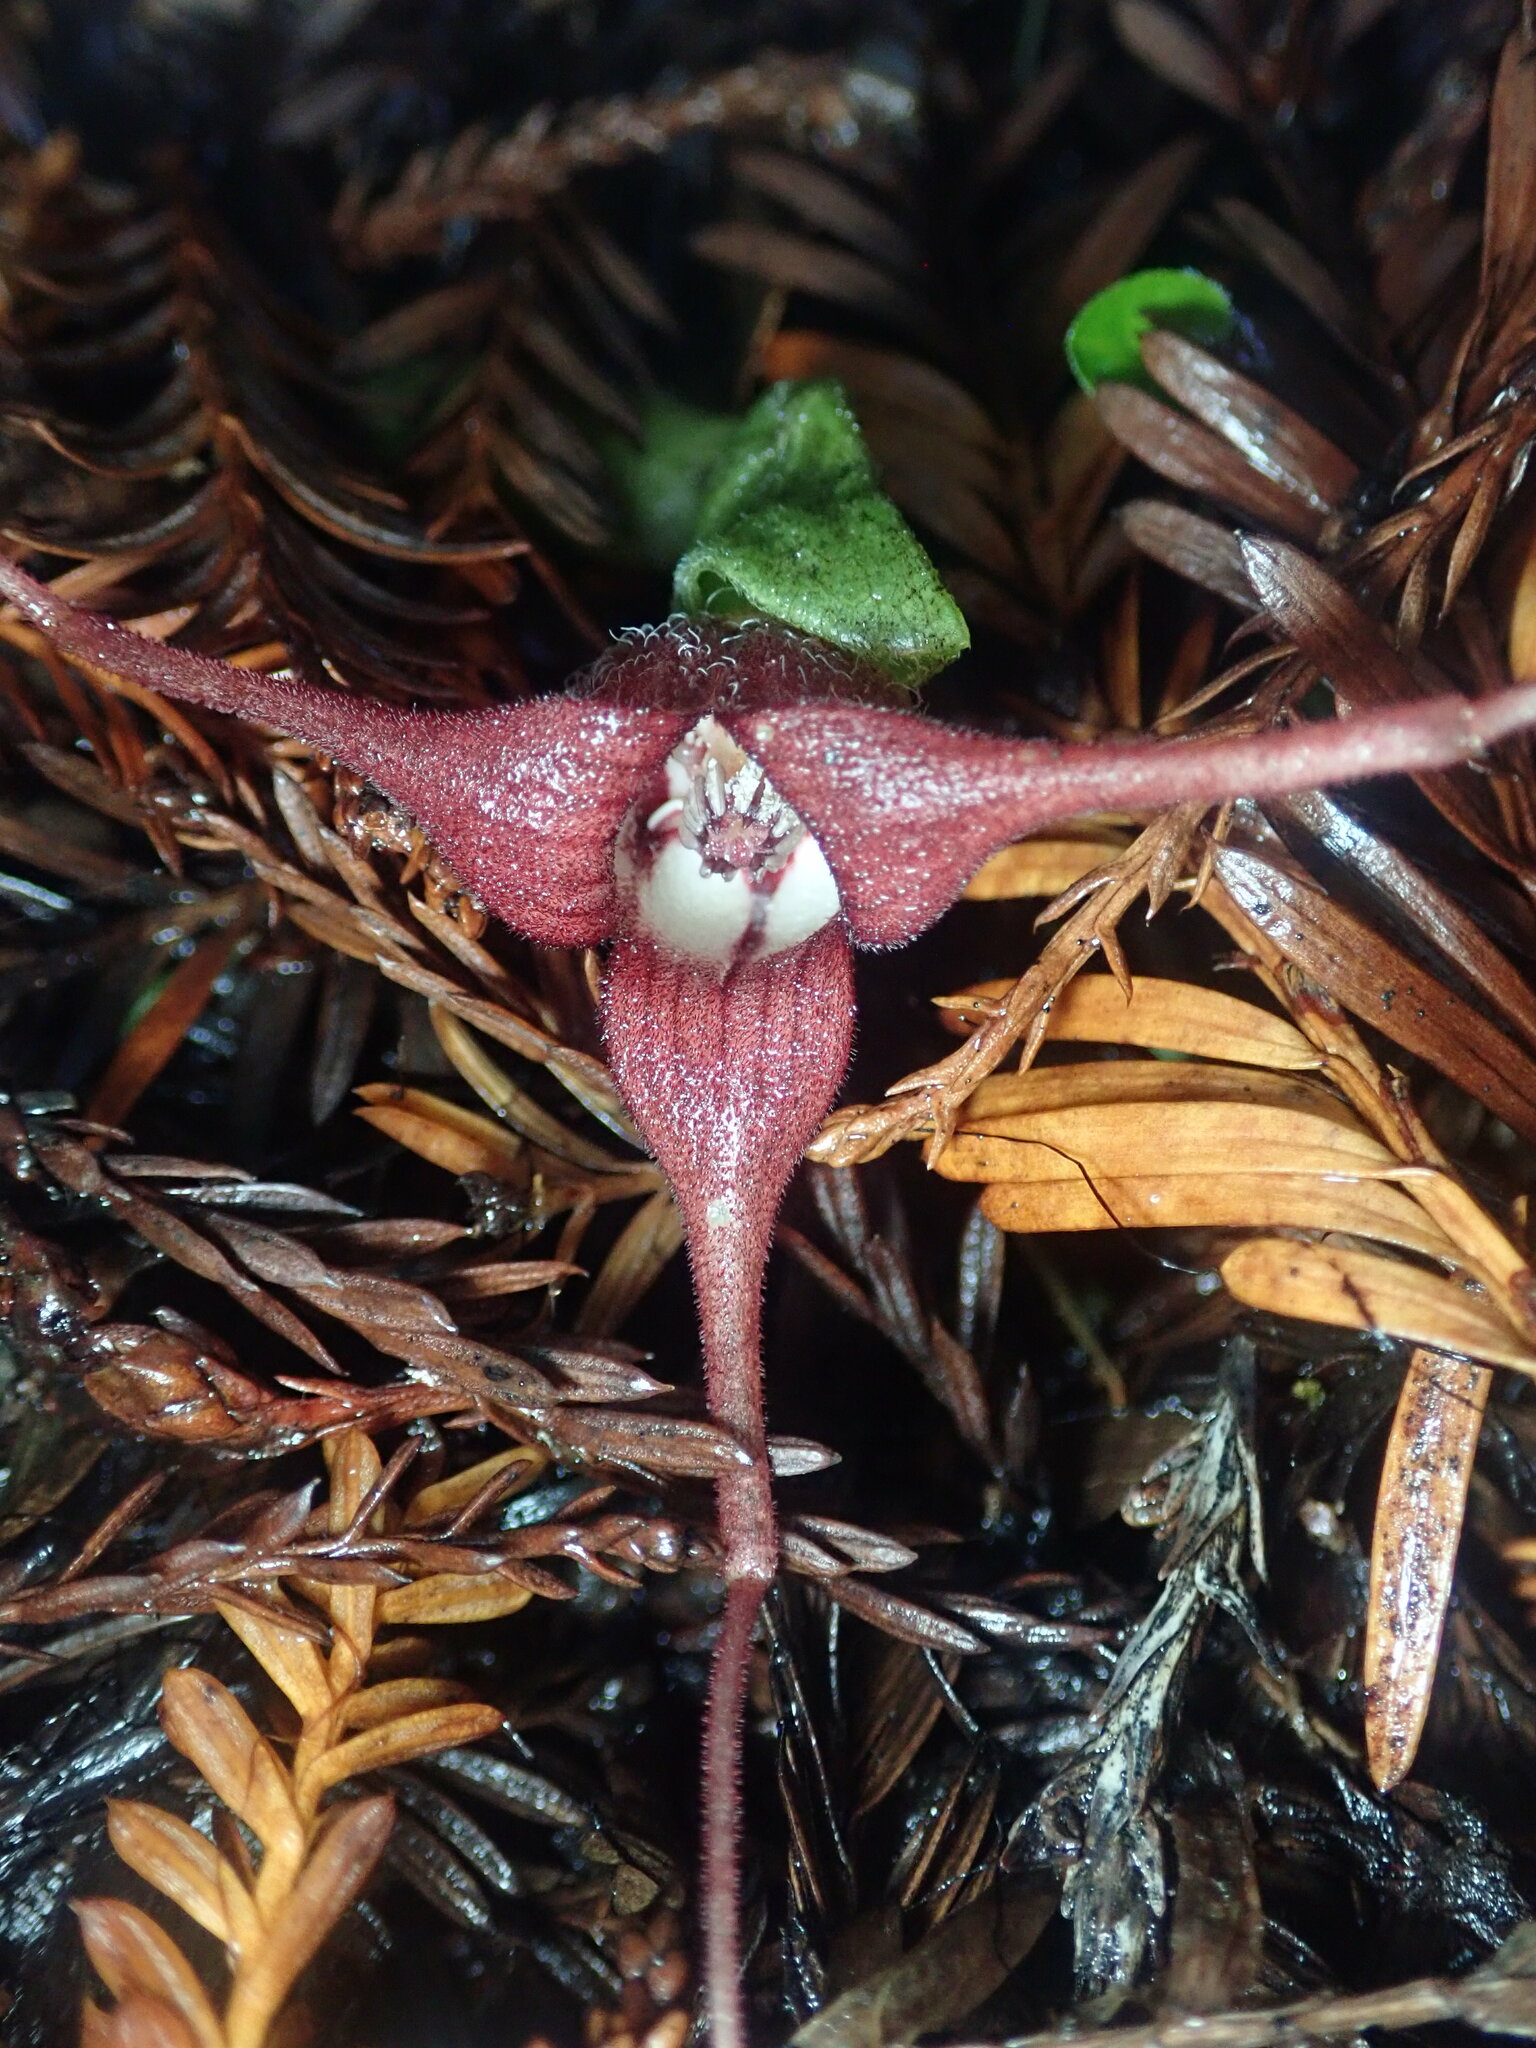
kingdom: Plantae
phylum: Tracheophyta
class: Magnoliopsida
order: Piperales
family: Aristolochiaceae
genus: Asarum
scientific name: Asarum caudatum
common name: Wild ginger
